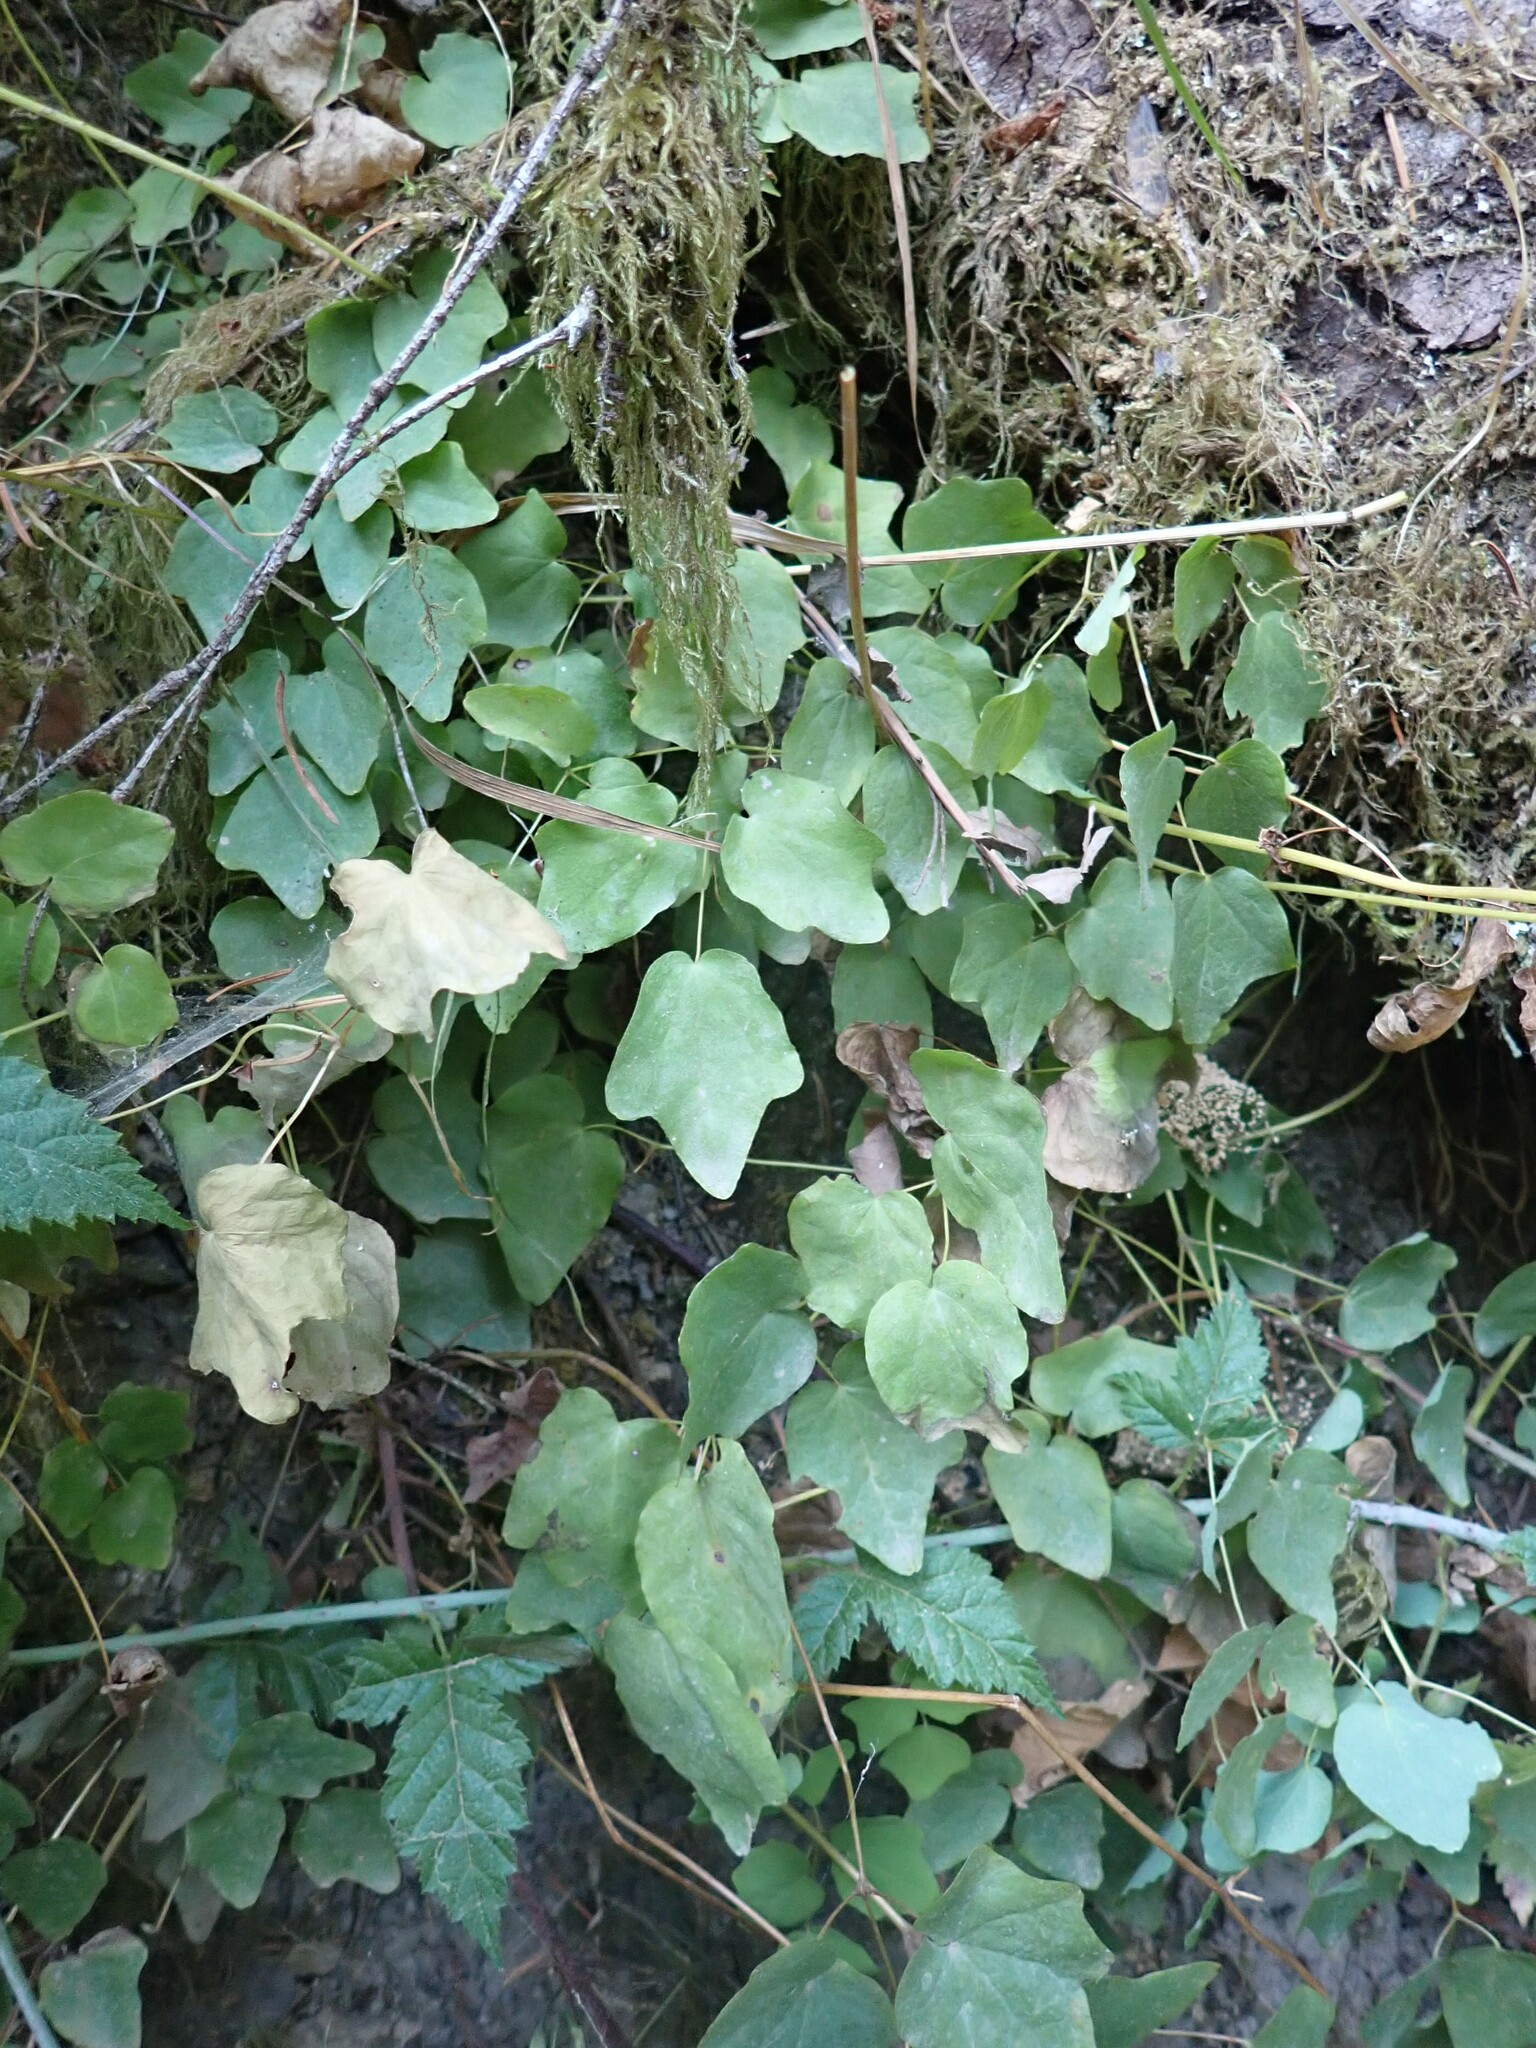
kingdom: Plantae
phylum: Tracheophyta
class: Magnoliopsida
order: Ranunculales
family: Berberidaceae
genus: Vancouveria
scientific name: Vancouveria hexandra
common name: Northern inside-out-flower
